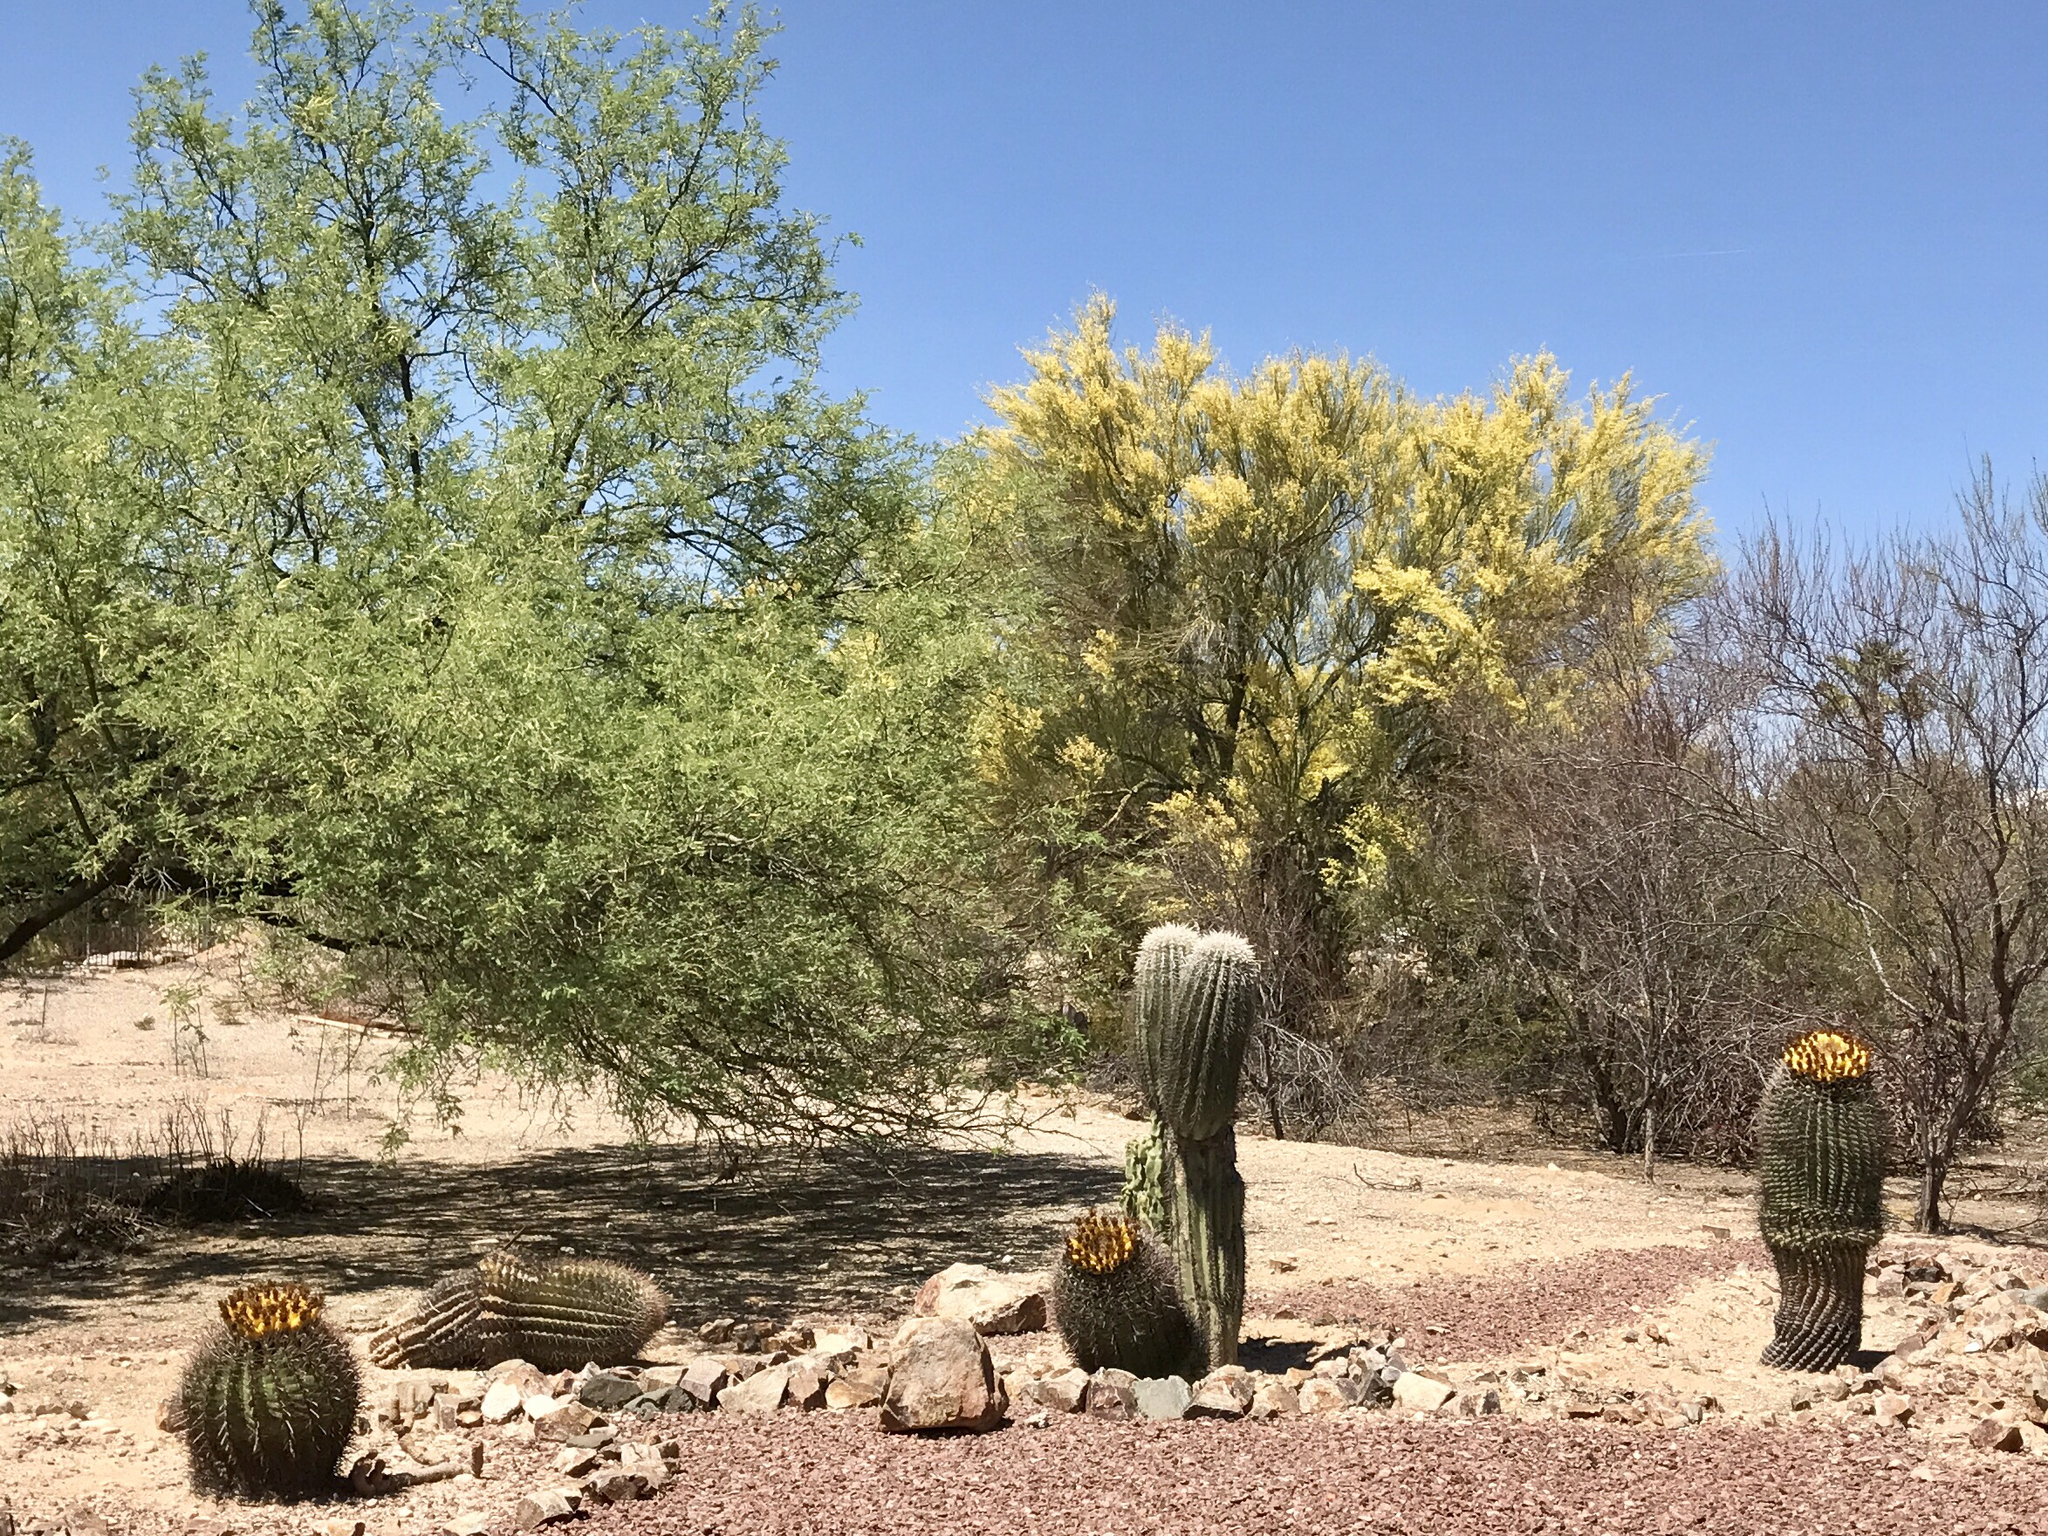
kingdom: Plantae
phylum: Tracheophyta
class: Magnoliopsida
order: Caryophyllales
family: Cactaceae
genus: Ferocactus
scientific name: Ferocactus wislizeni
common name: Candy barrel cactus
